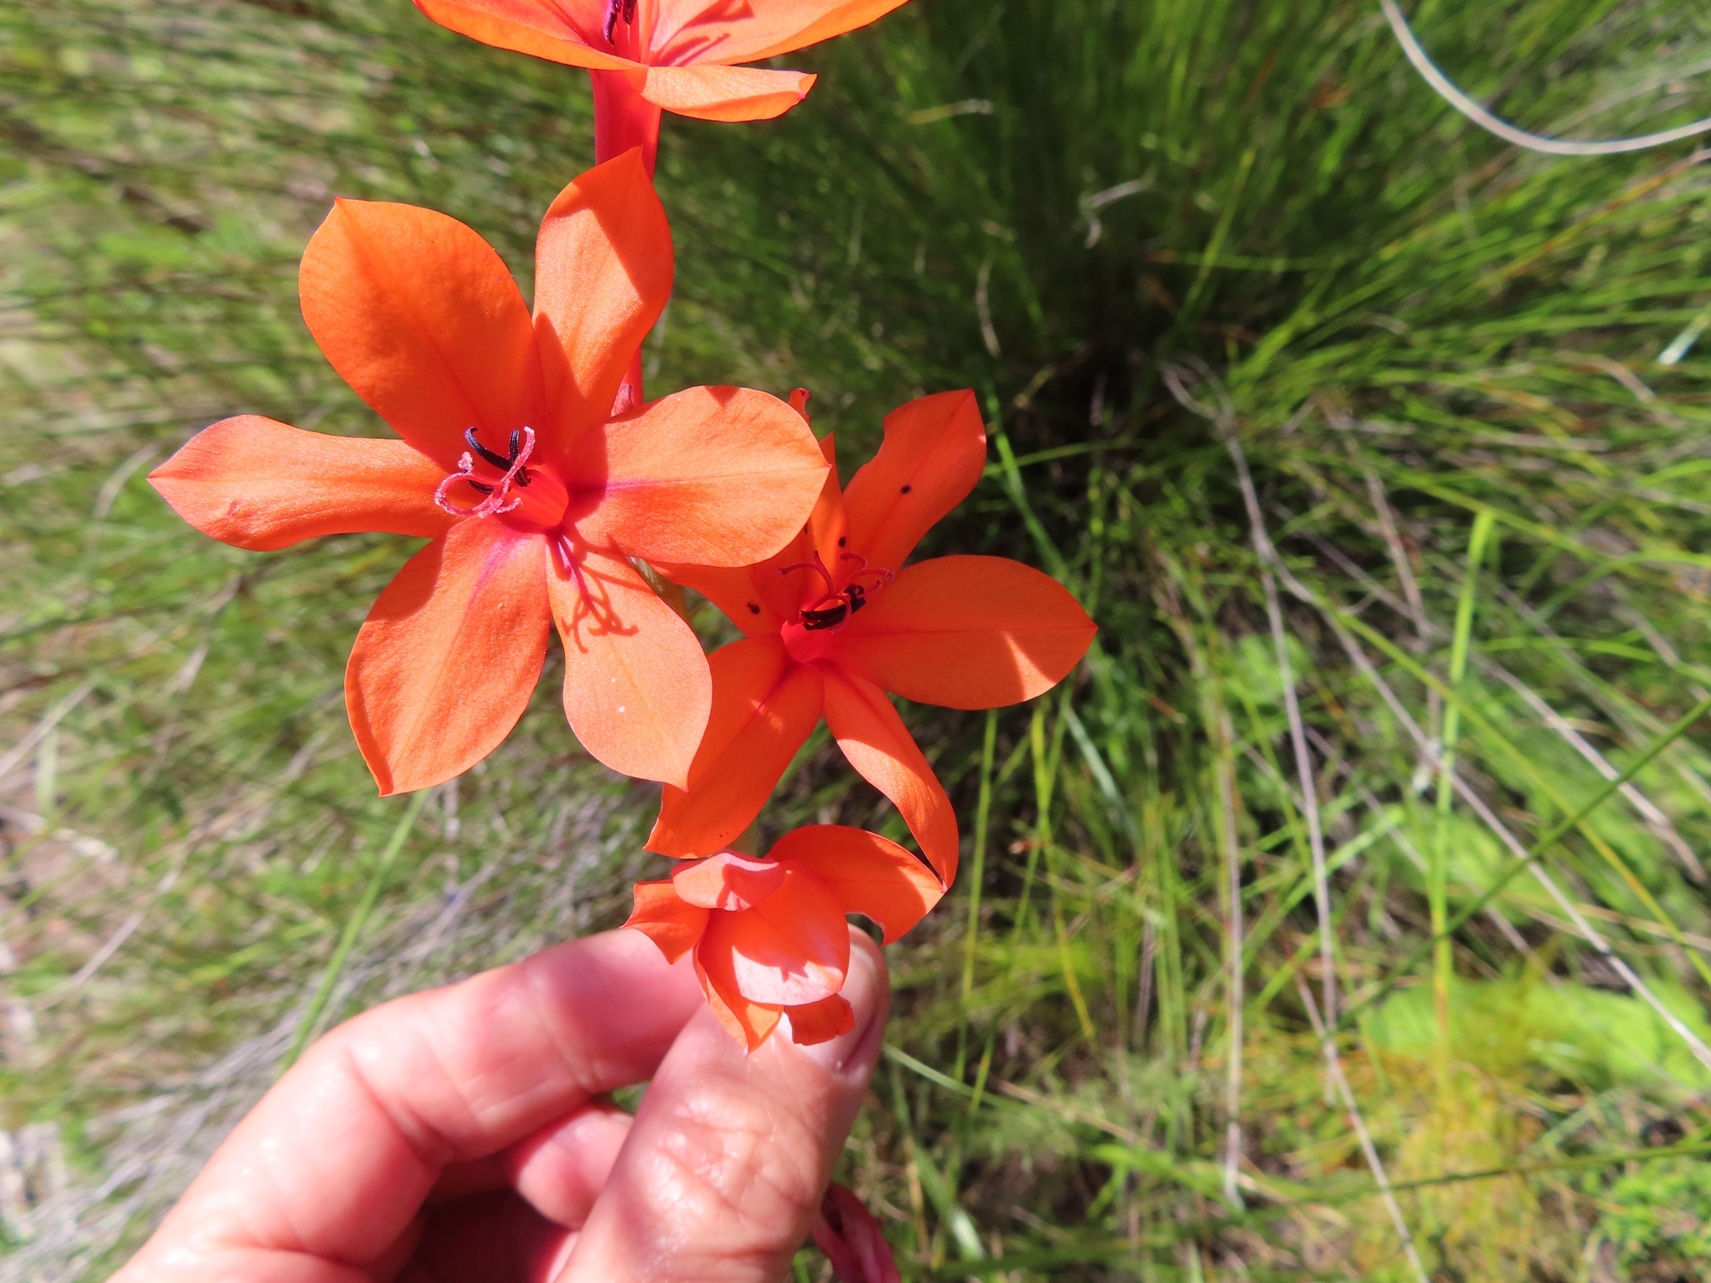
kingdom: Plantae
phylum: Tracheophyta
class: Liliopsida
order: Asparagales
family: Iridaceae
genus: Watsonia
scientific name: Watsonia stenosiphon
